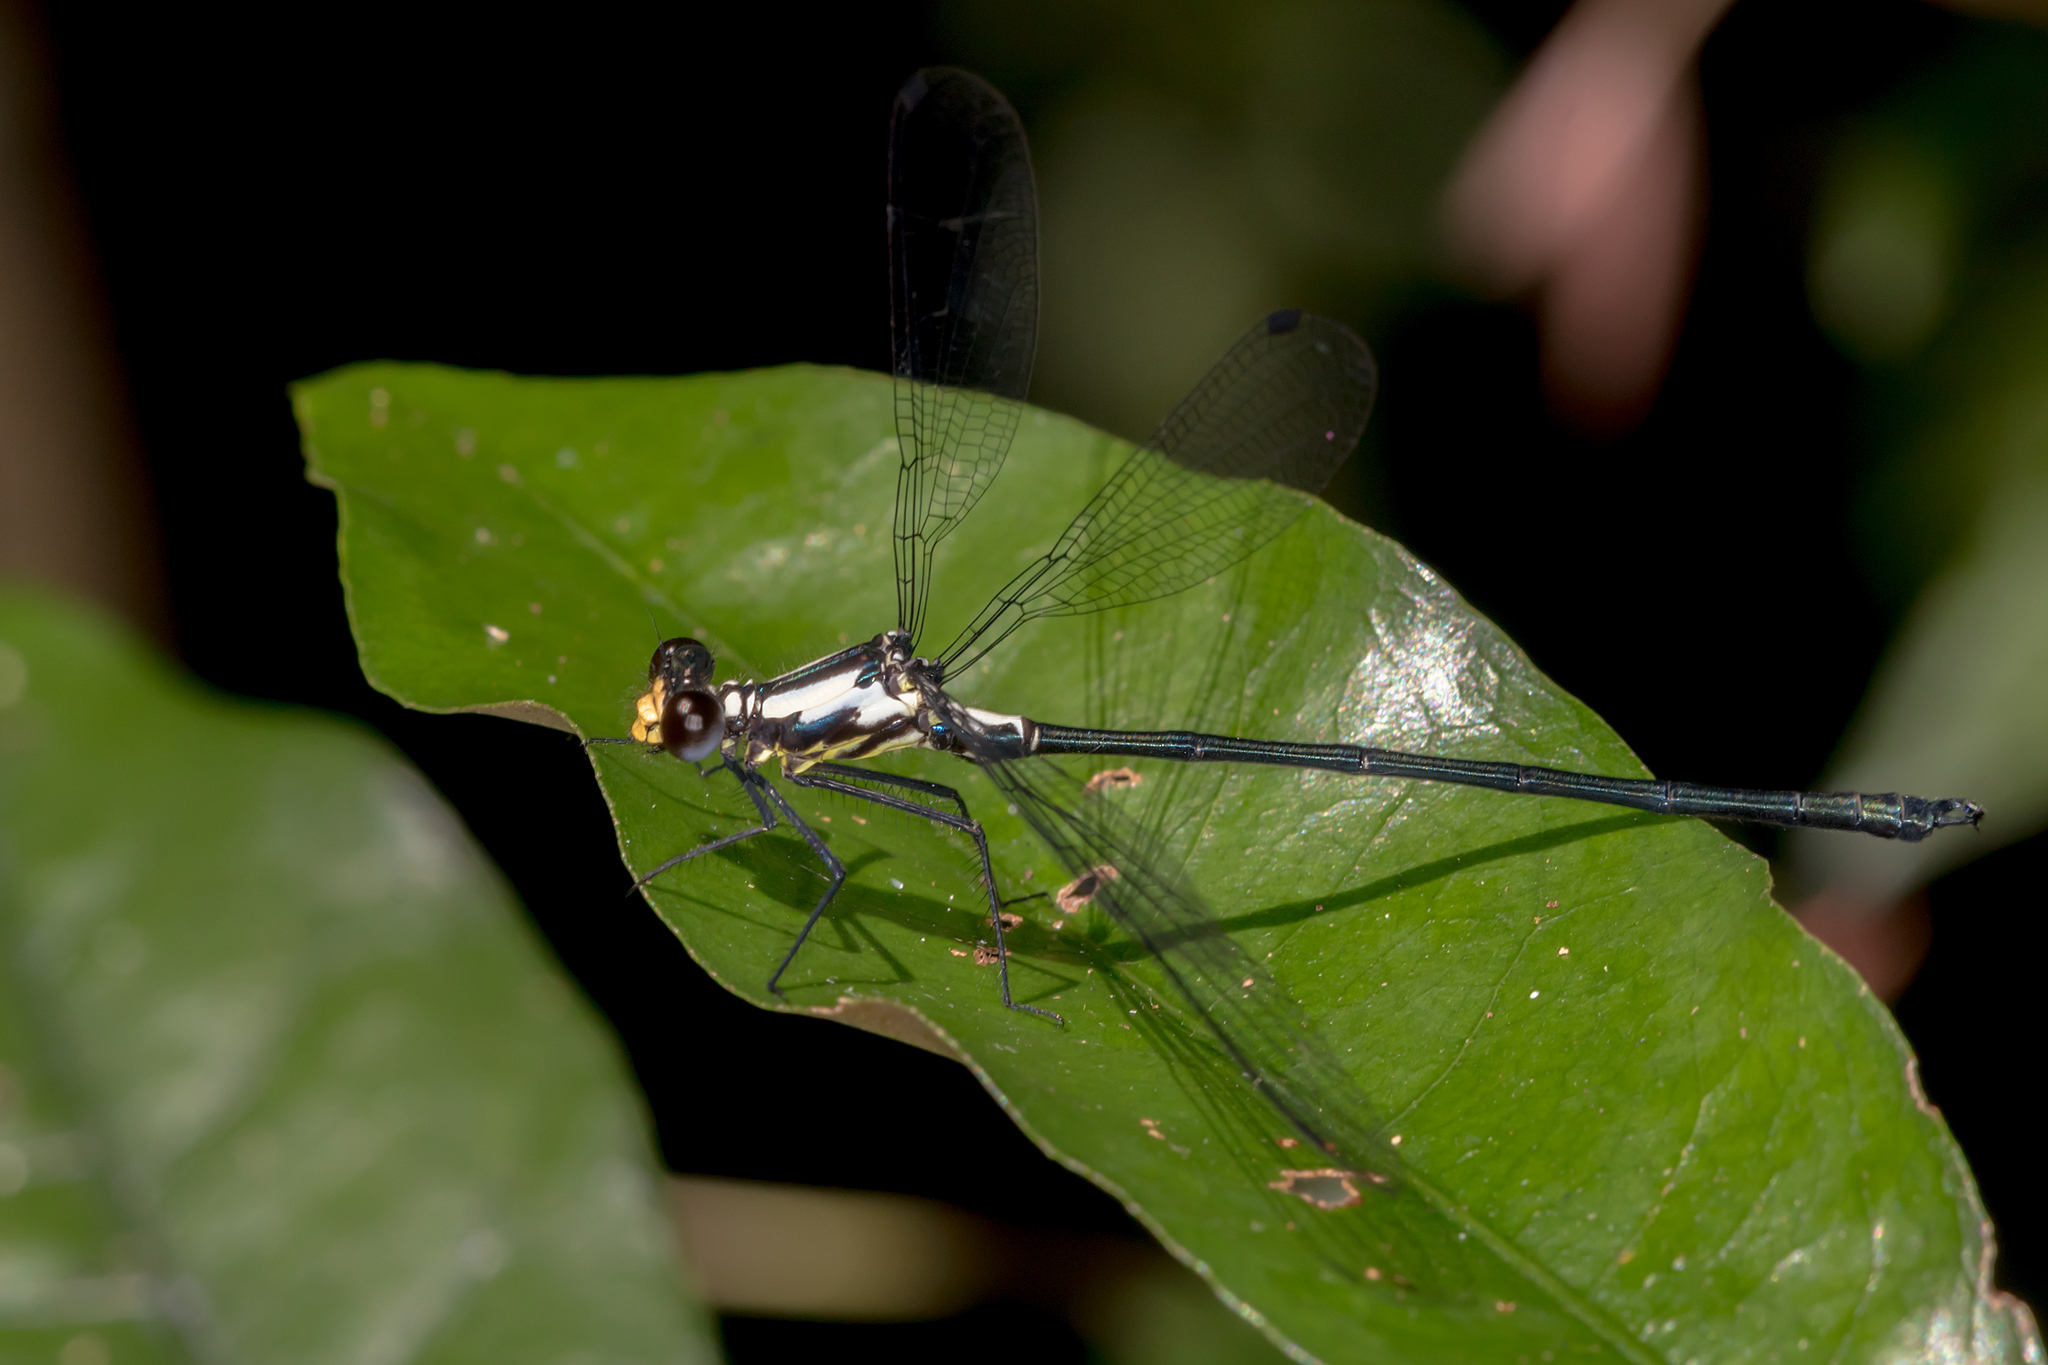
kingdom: Animalia
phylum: Arthropoda
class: Insecta
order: Odonata
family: Argiolestidae
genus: Austroargiolestes
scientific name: Austroargiolestes amabilis
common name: Flame flatwing
